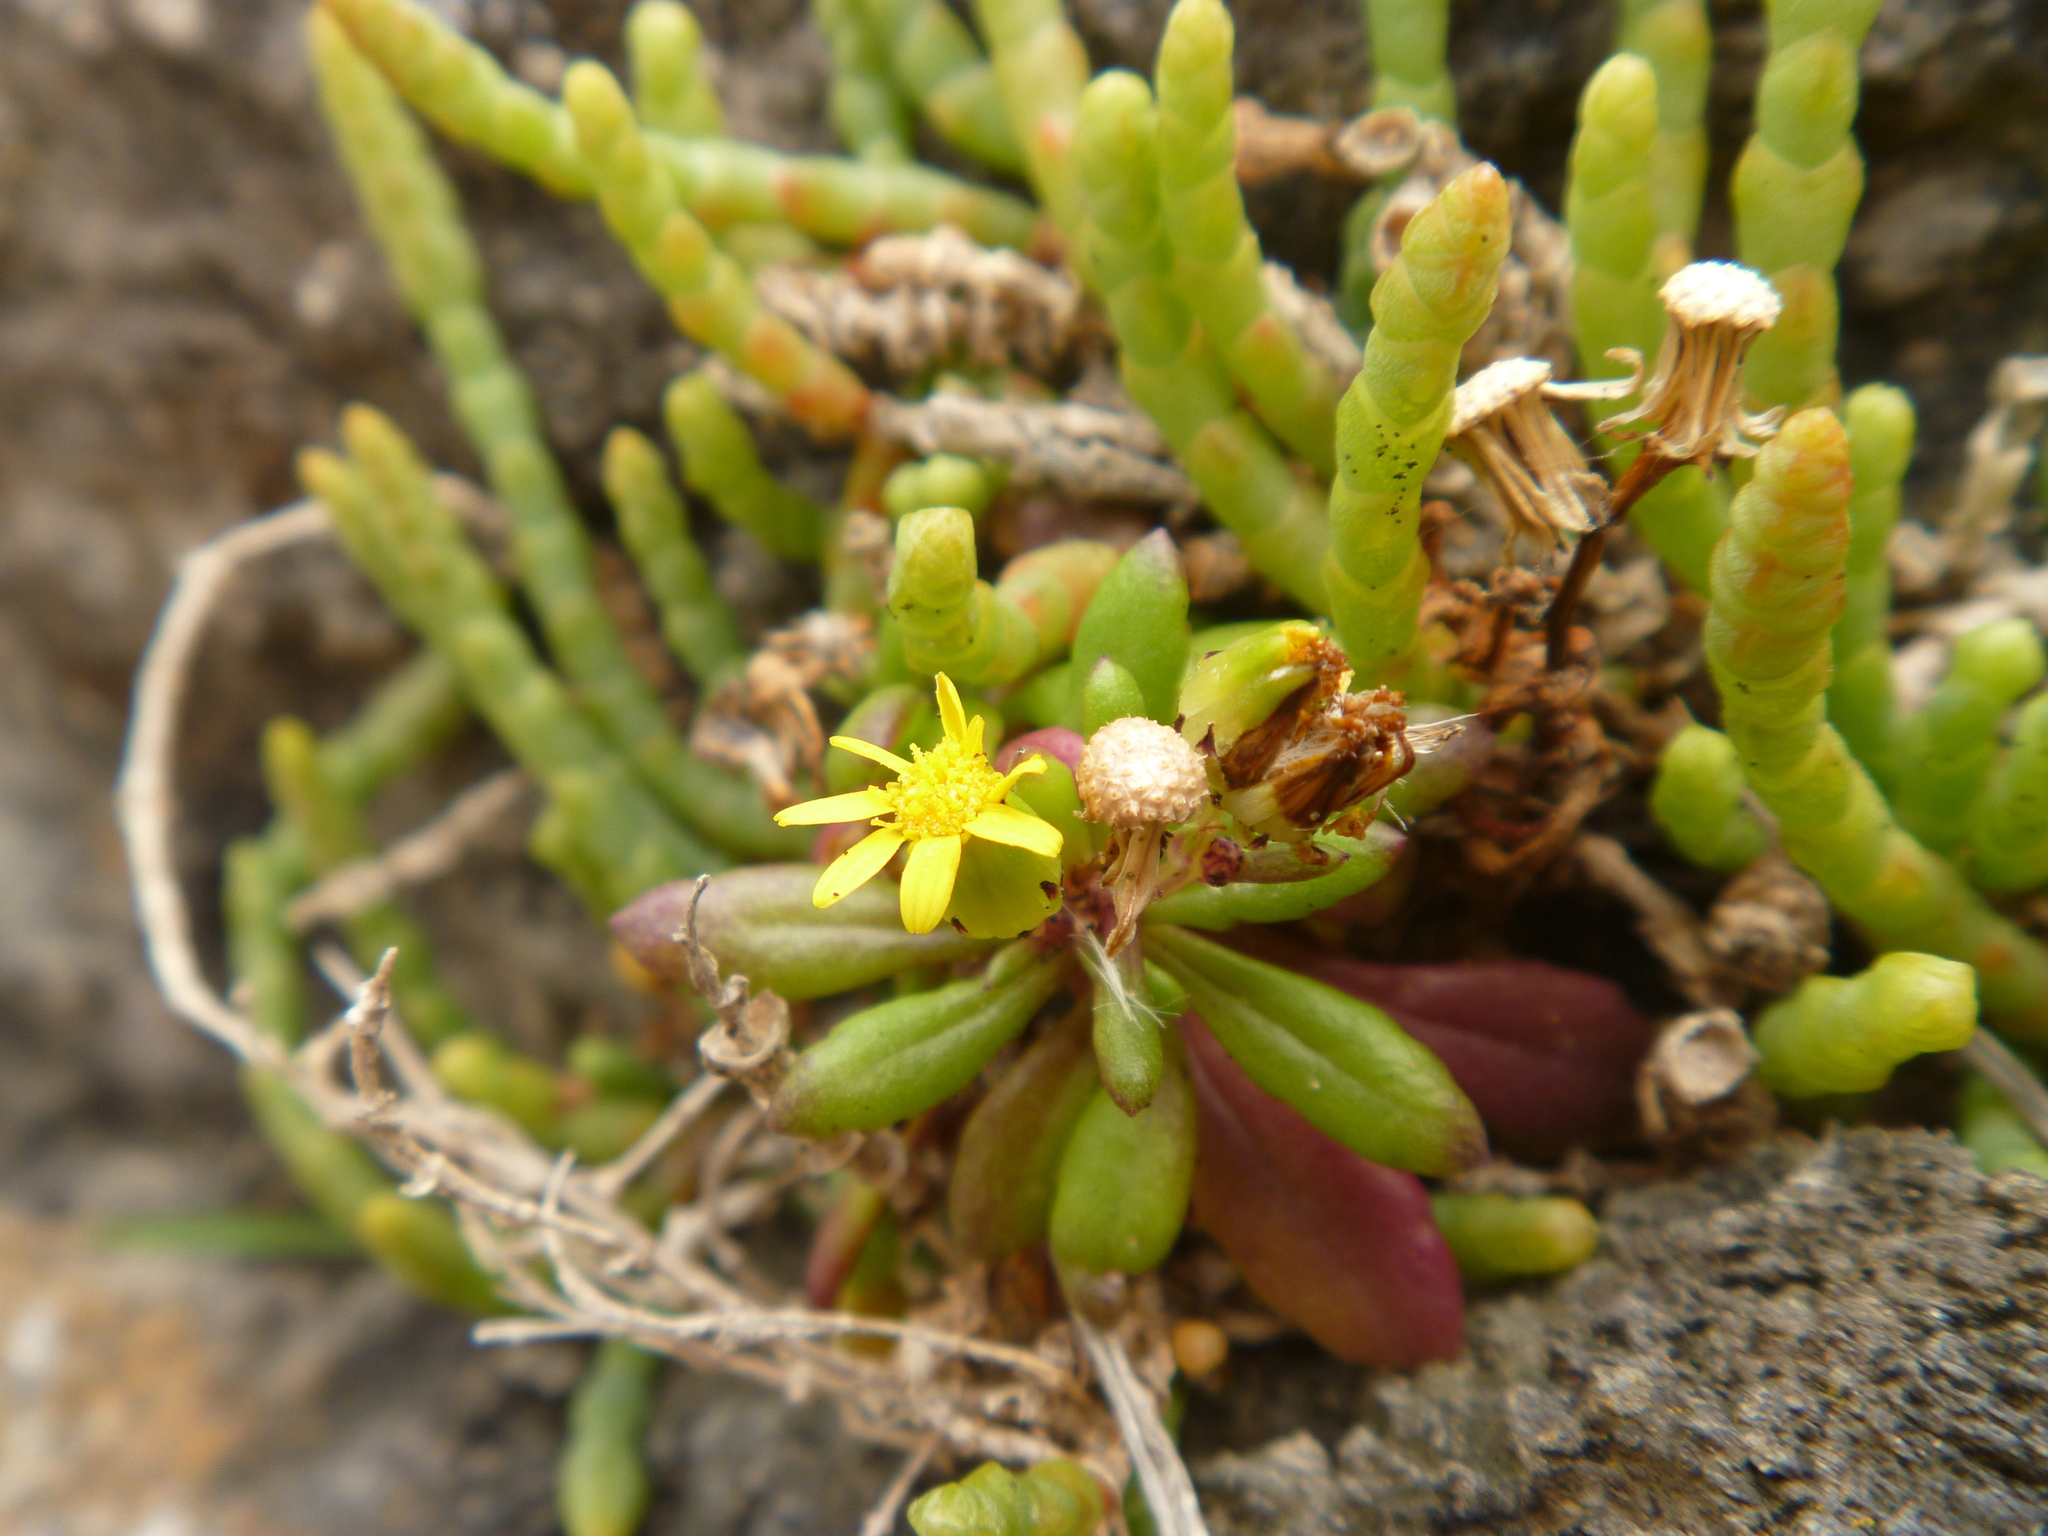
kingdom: Plantae
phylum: Tracheophyta
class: Magnoliopsida
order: Asterales
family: Asteraceae
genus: Senecio
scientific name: Senecio lautus
